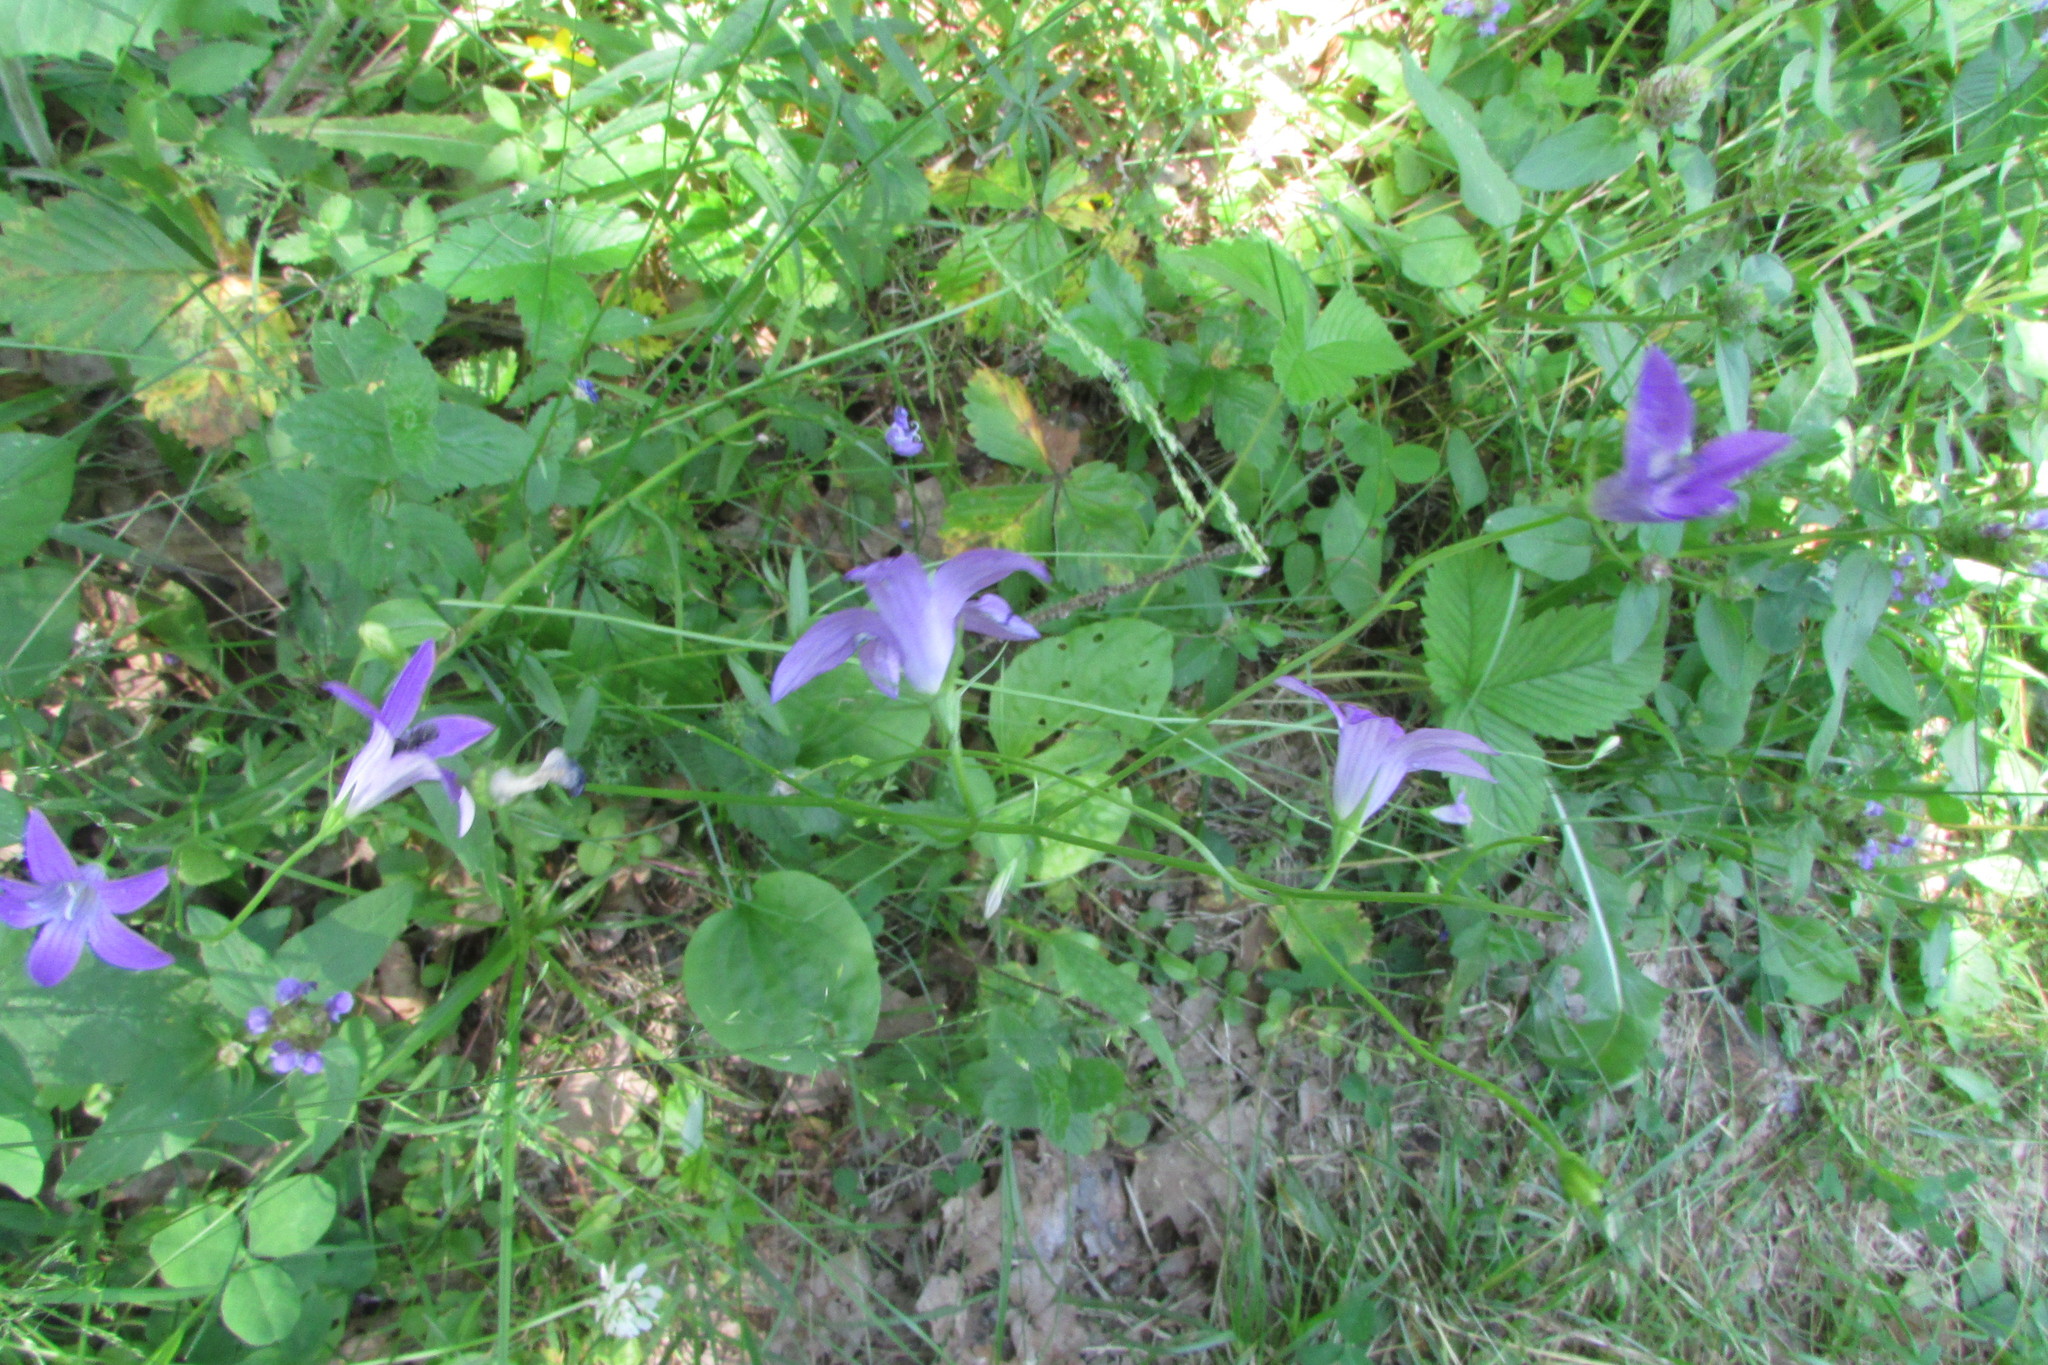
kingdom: Plantae
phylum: Tracheophyta
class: Magnoliopsida
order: Asterales
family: Campanulaceae
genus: Campanula
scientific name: Campanula patula
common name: Spreading bellflower
